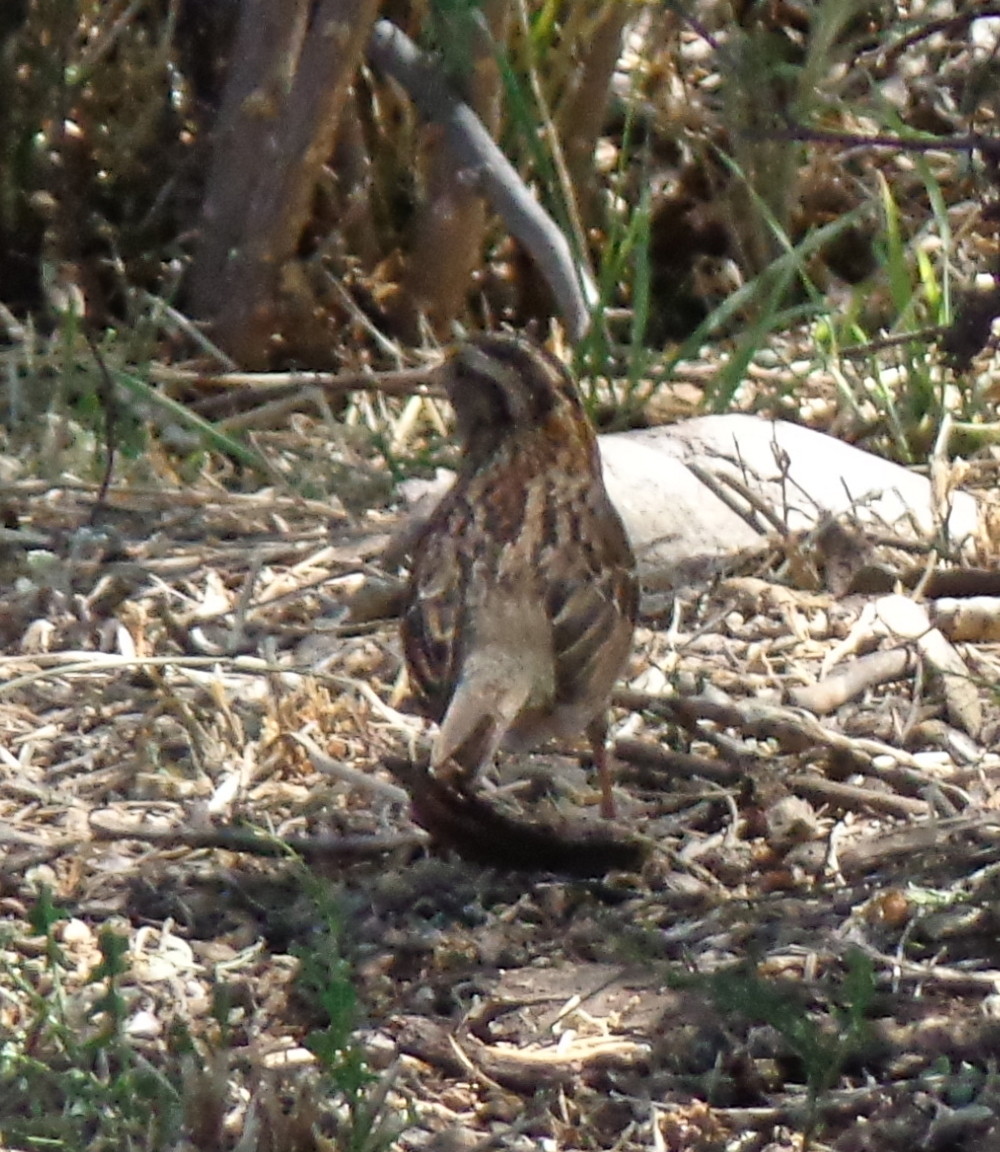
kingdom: Animalia
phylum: Chordata
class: Aves
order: Passeriformes
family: Passerellidae
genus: Zonotrichia
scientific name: Zonotrichia albicollis
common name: White-throated sparrow
